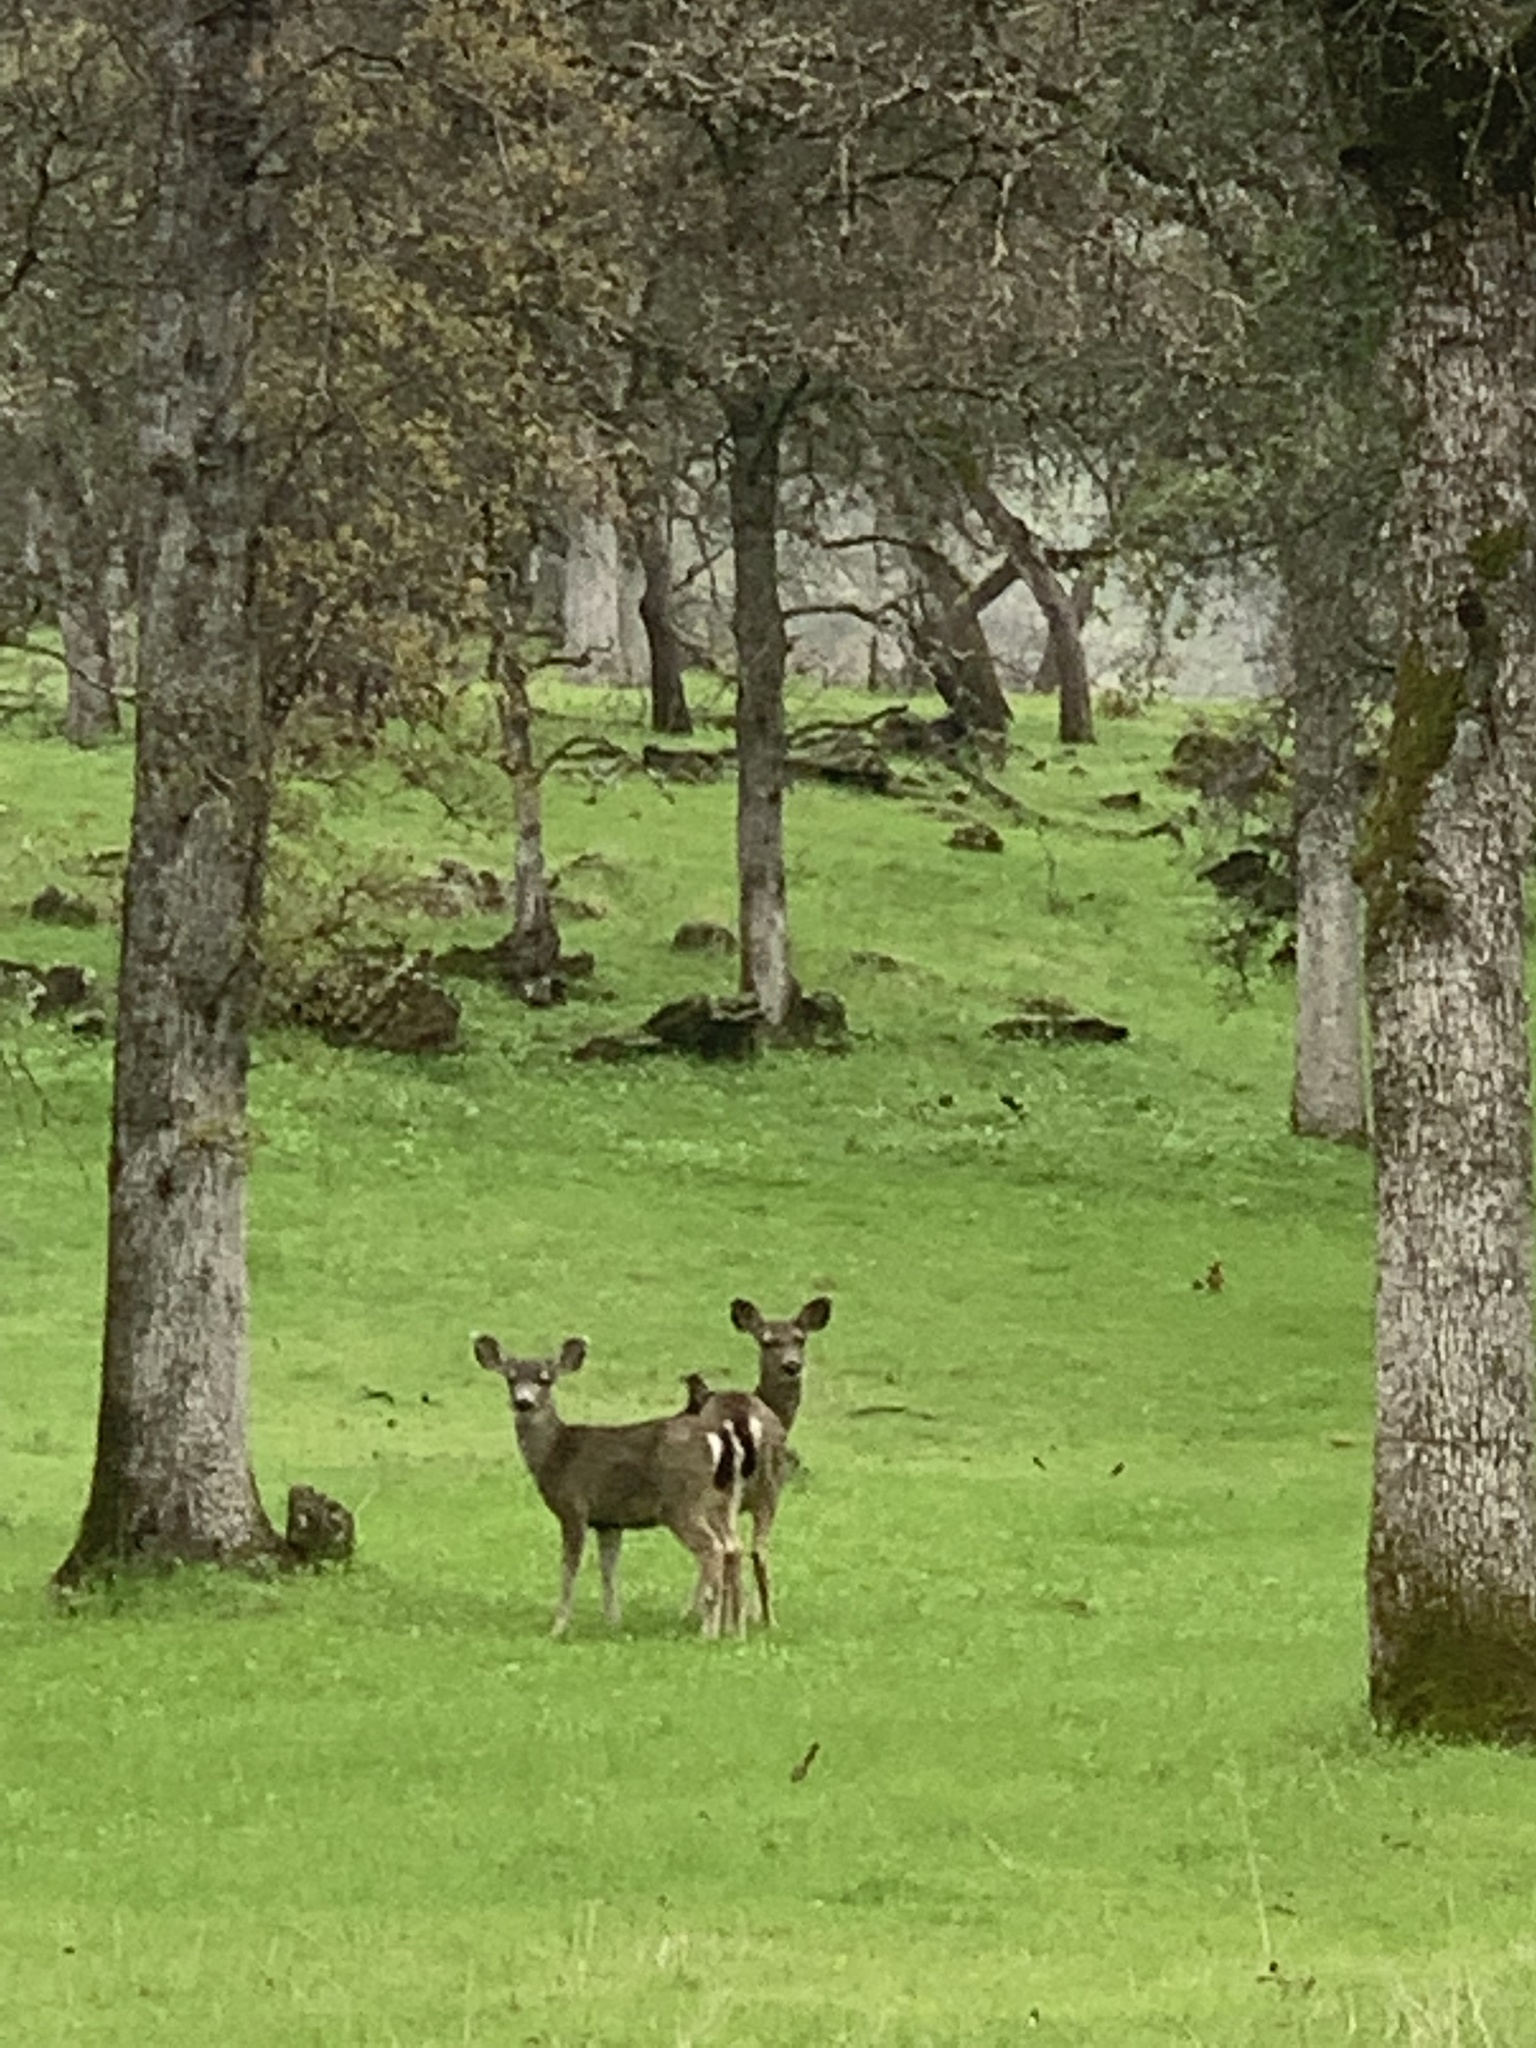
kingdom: Animalia
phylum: Chordata
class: Mammalia
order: Artiodactyla
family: Cervidae
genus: Odocoileus
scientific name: Odocoileus hemionus
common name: Mule deer
